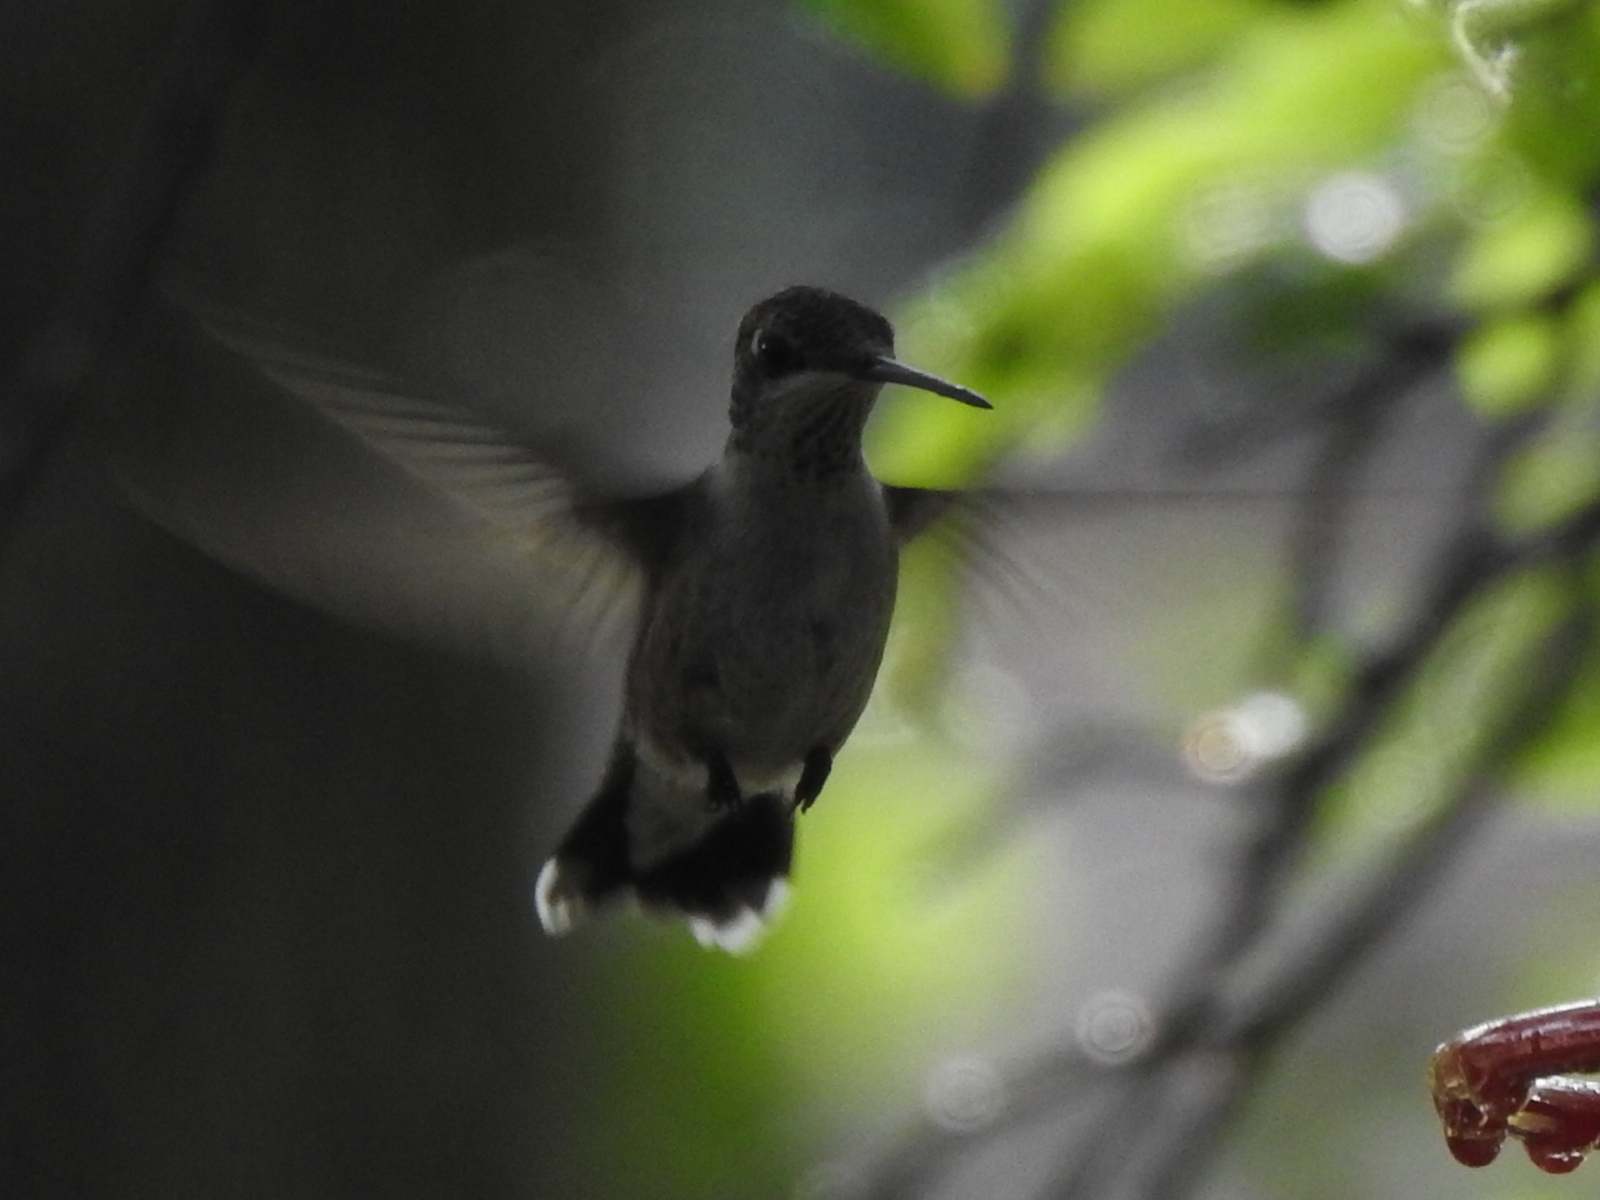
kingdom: Animalia
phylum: Chordata
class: Aves
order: Apodiformes
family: Trochilidae
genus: Archilochus
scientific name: Archilochus alexandri
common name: Black-chinned hummingbird
